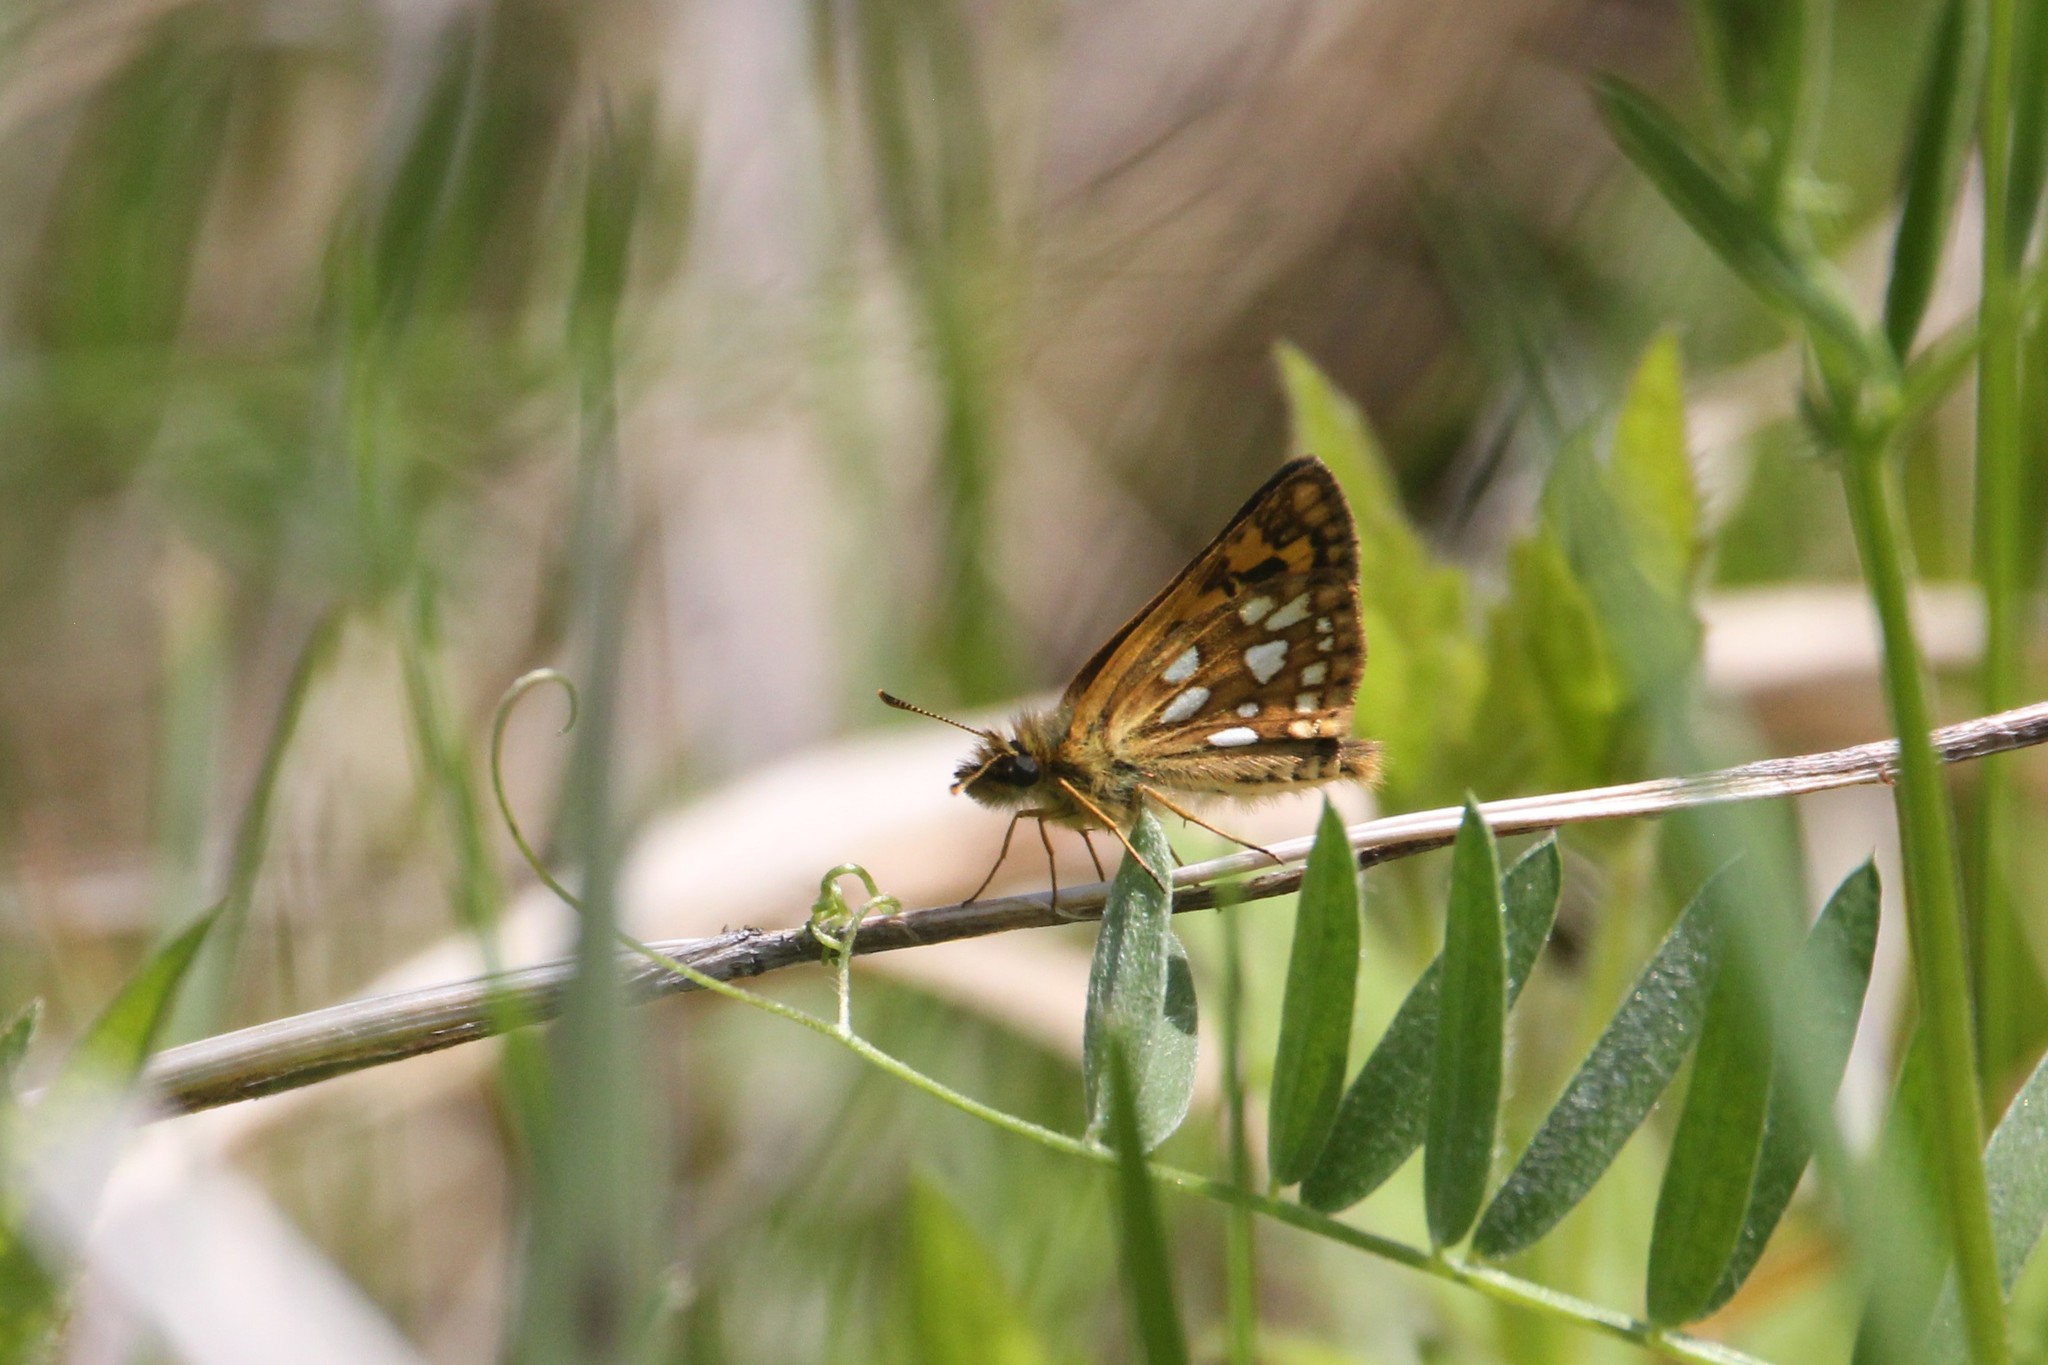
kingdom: Animalia
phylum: Arthropoda
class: Insecta
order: Lepidoptera
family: Hesperiidae
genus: Carterocephalus
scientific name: Carterocephalus mandan
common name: Arctic skipperling
